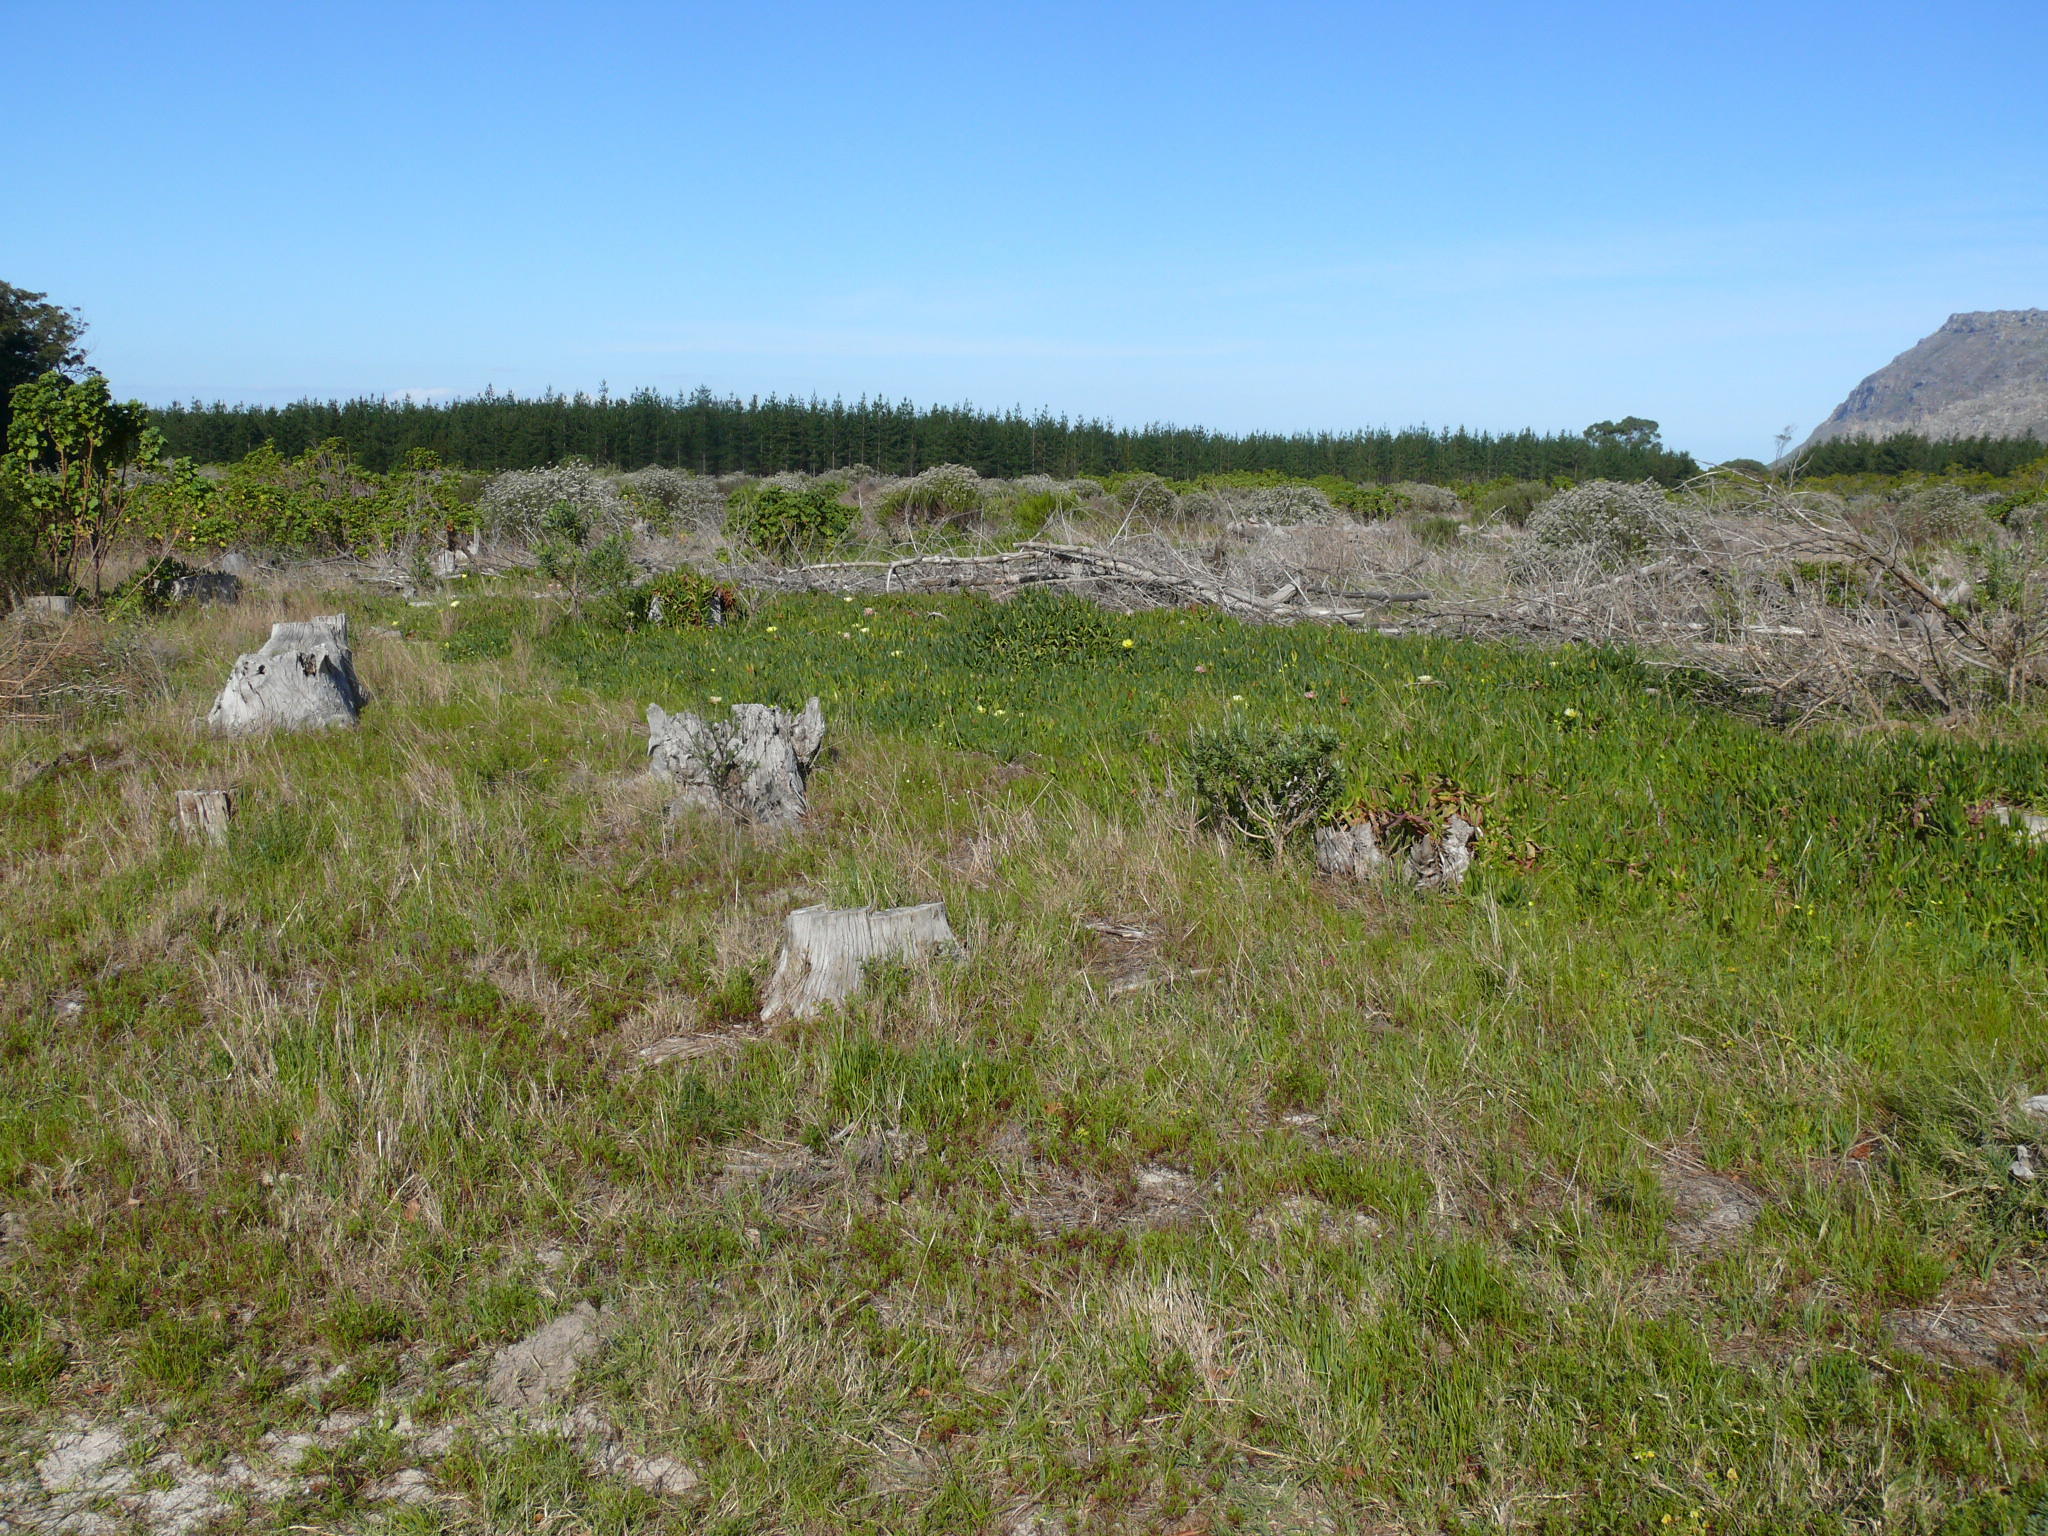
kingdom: Plantae
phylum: Tracheophyta
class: Magnoliopsida
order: Caryophyllales
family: Aizoaceae
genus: Carpobrotus
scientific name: Carpobrotus edulis
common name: Hottentot-fig
